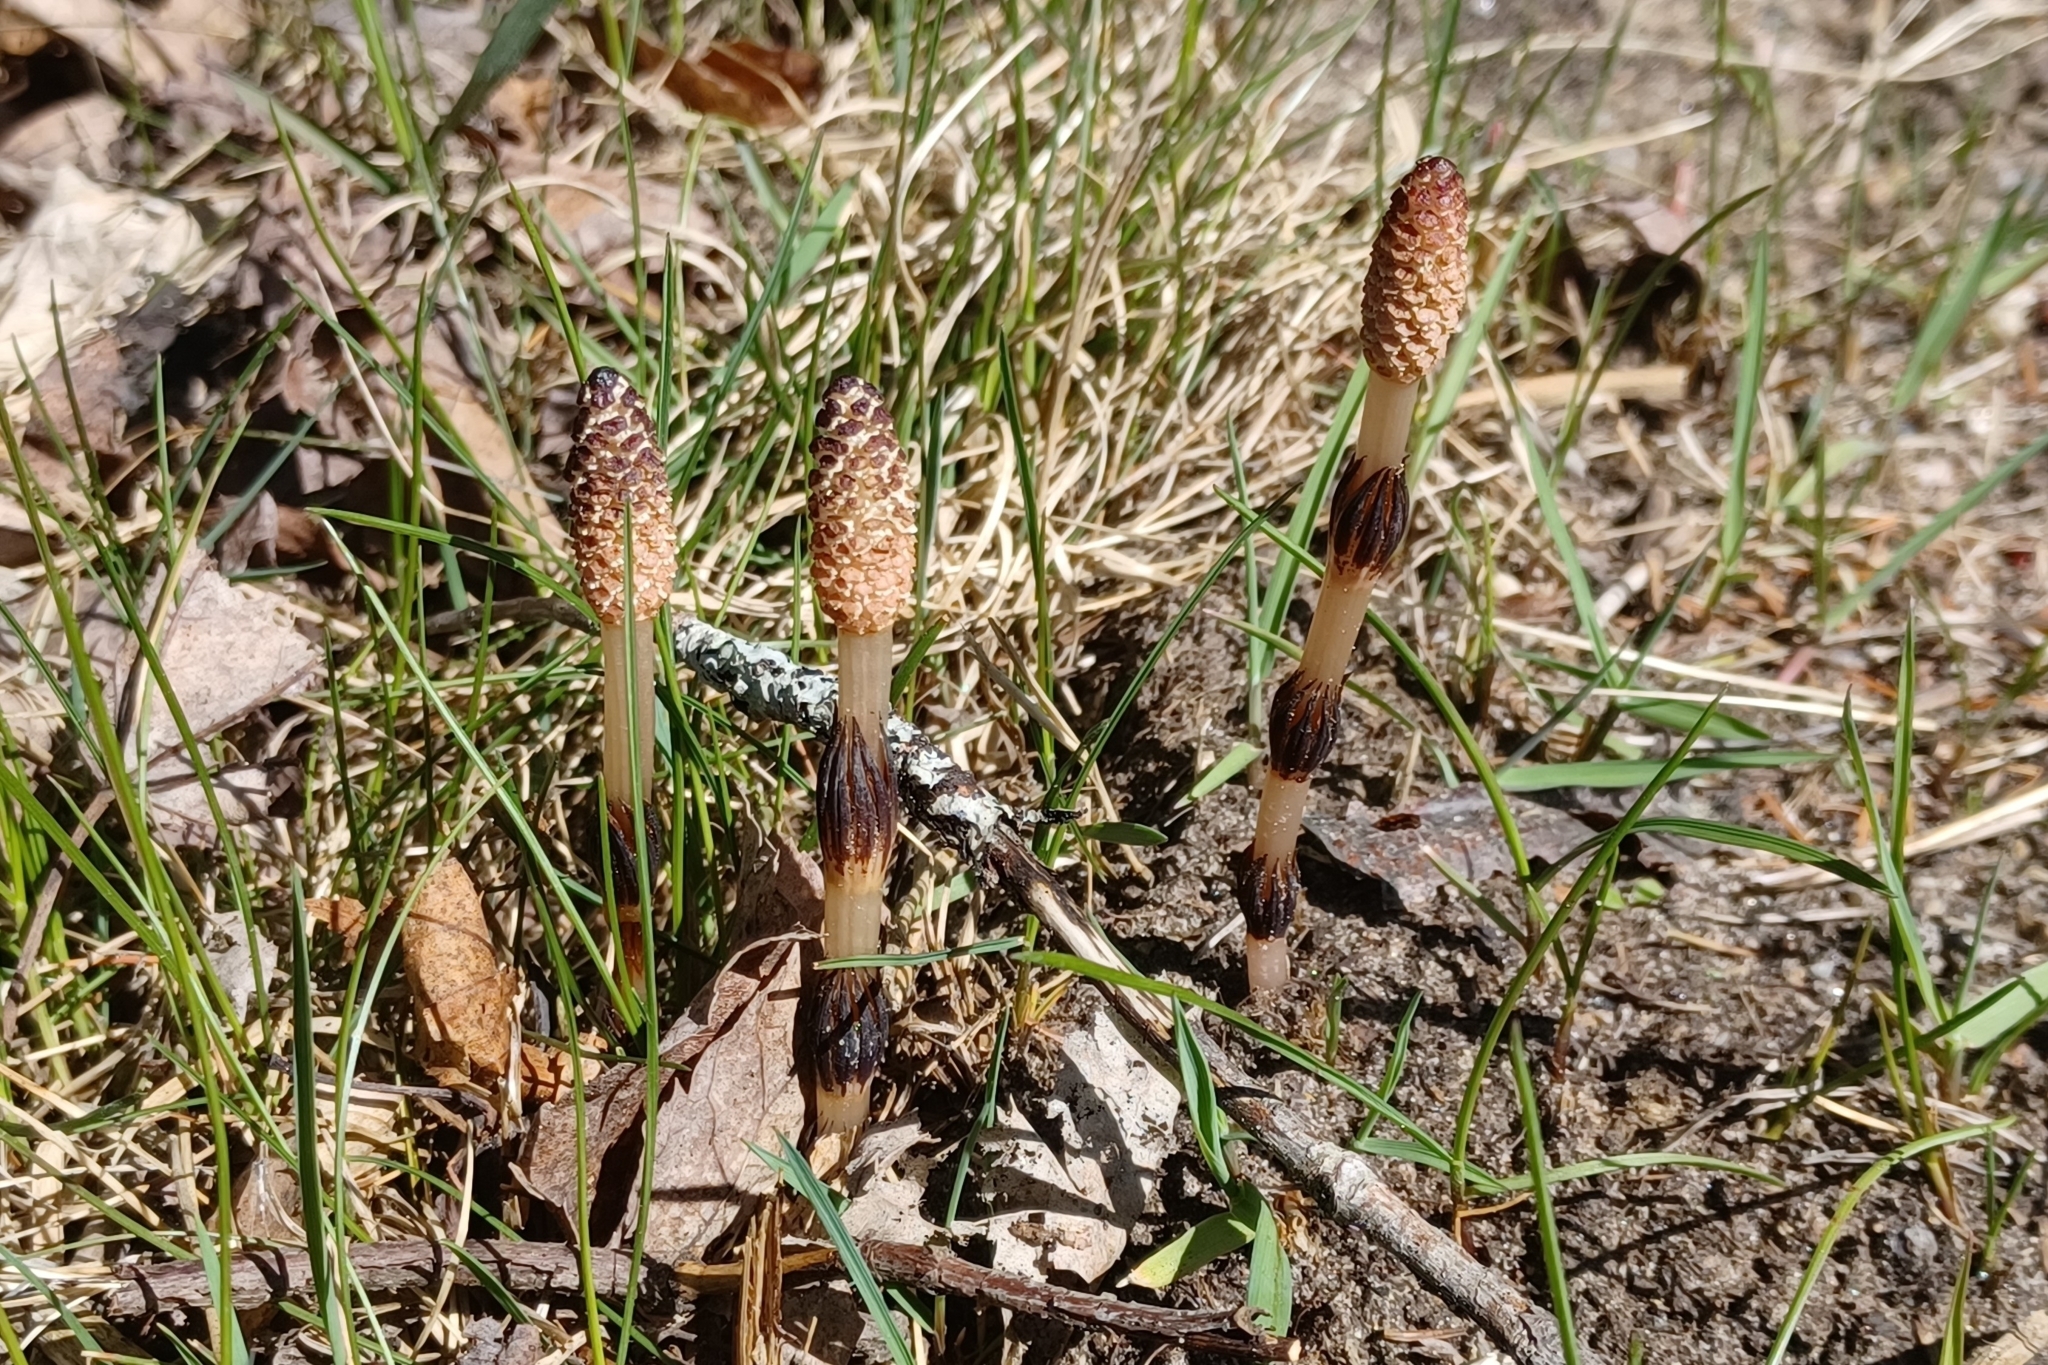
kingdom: Plantae
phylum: Tracheophyta
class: Polypodiopsida
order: Equisetales
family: Equisetaceae
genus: Equisetum
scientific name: Equisetum arvense
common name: Field horsetail
